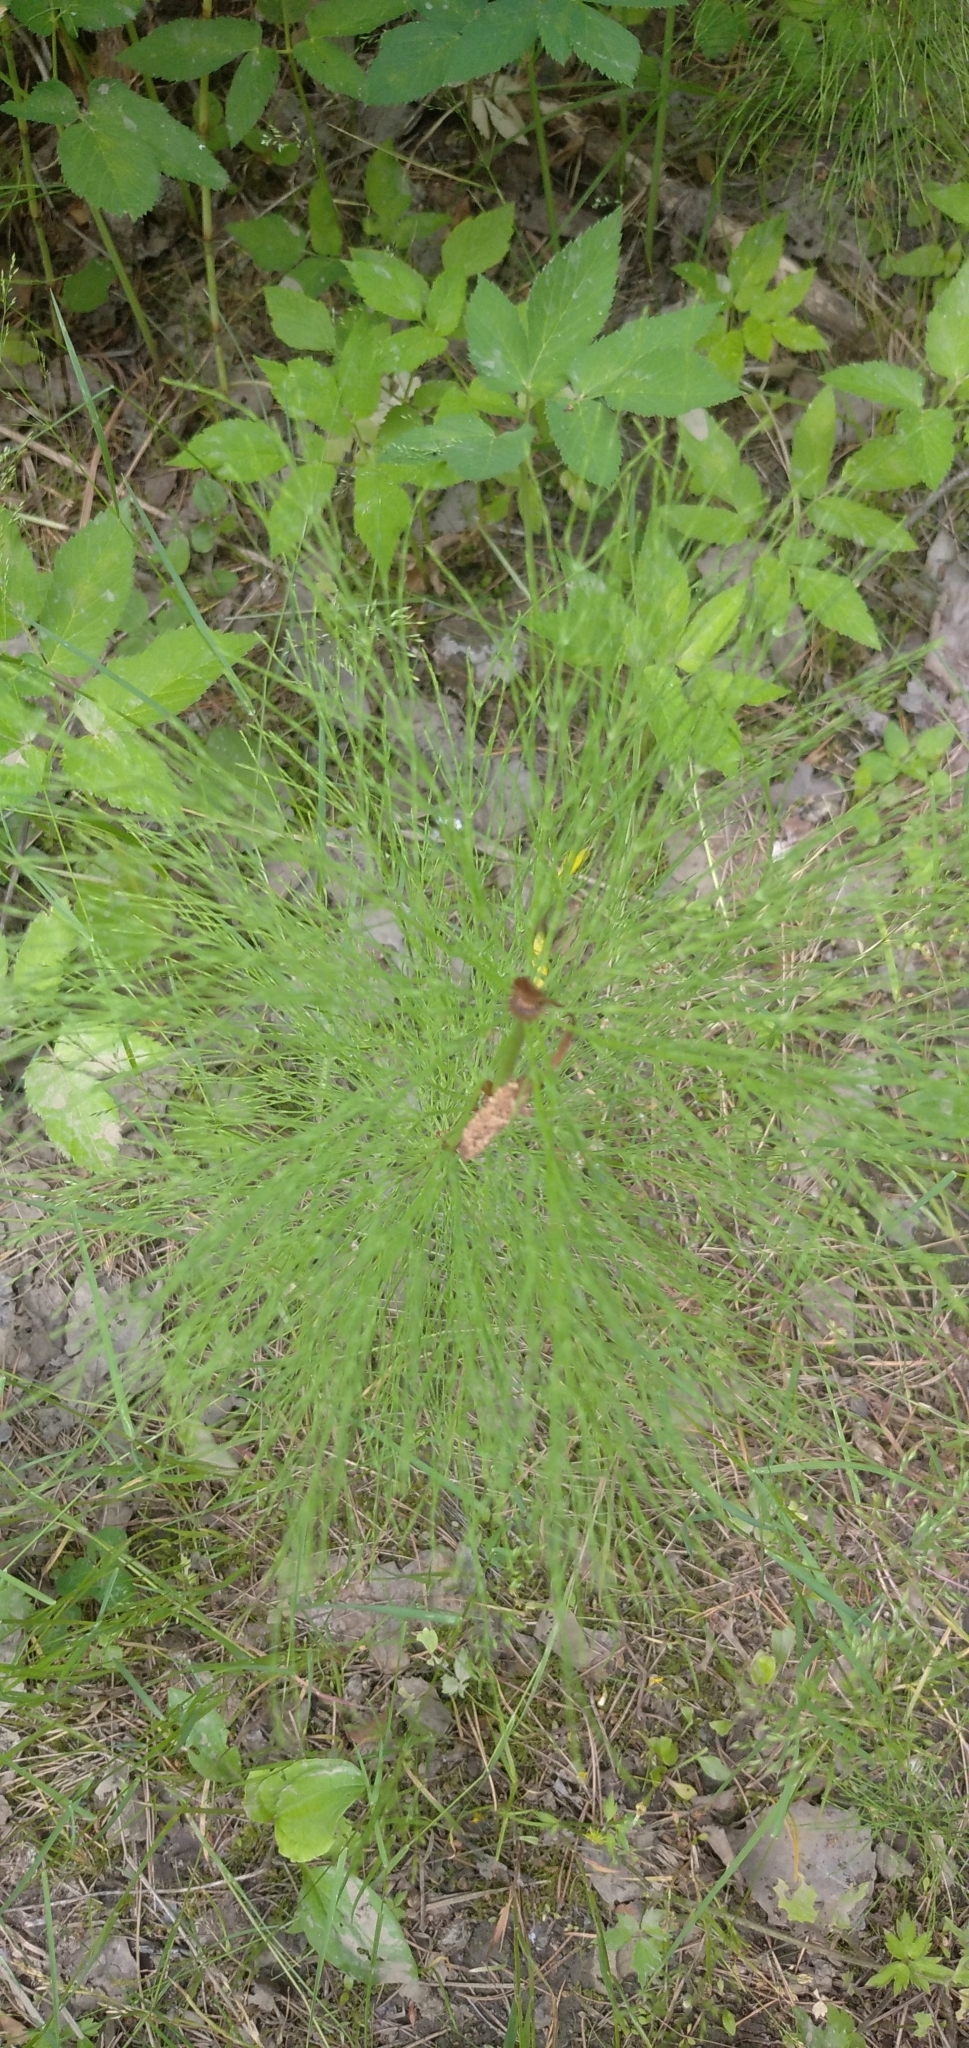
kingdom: Plantae
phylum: Tracheophyta
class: Polypodiopsida
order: Equisetales
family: Equisetaceae
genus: Equisetum
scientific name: Equisetum sylvaticum
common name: Wood horsetail
